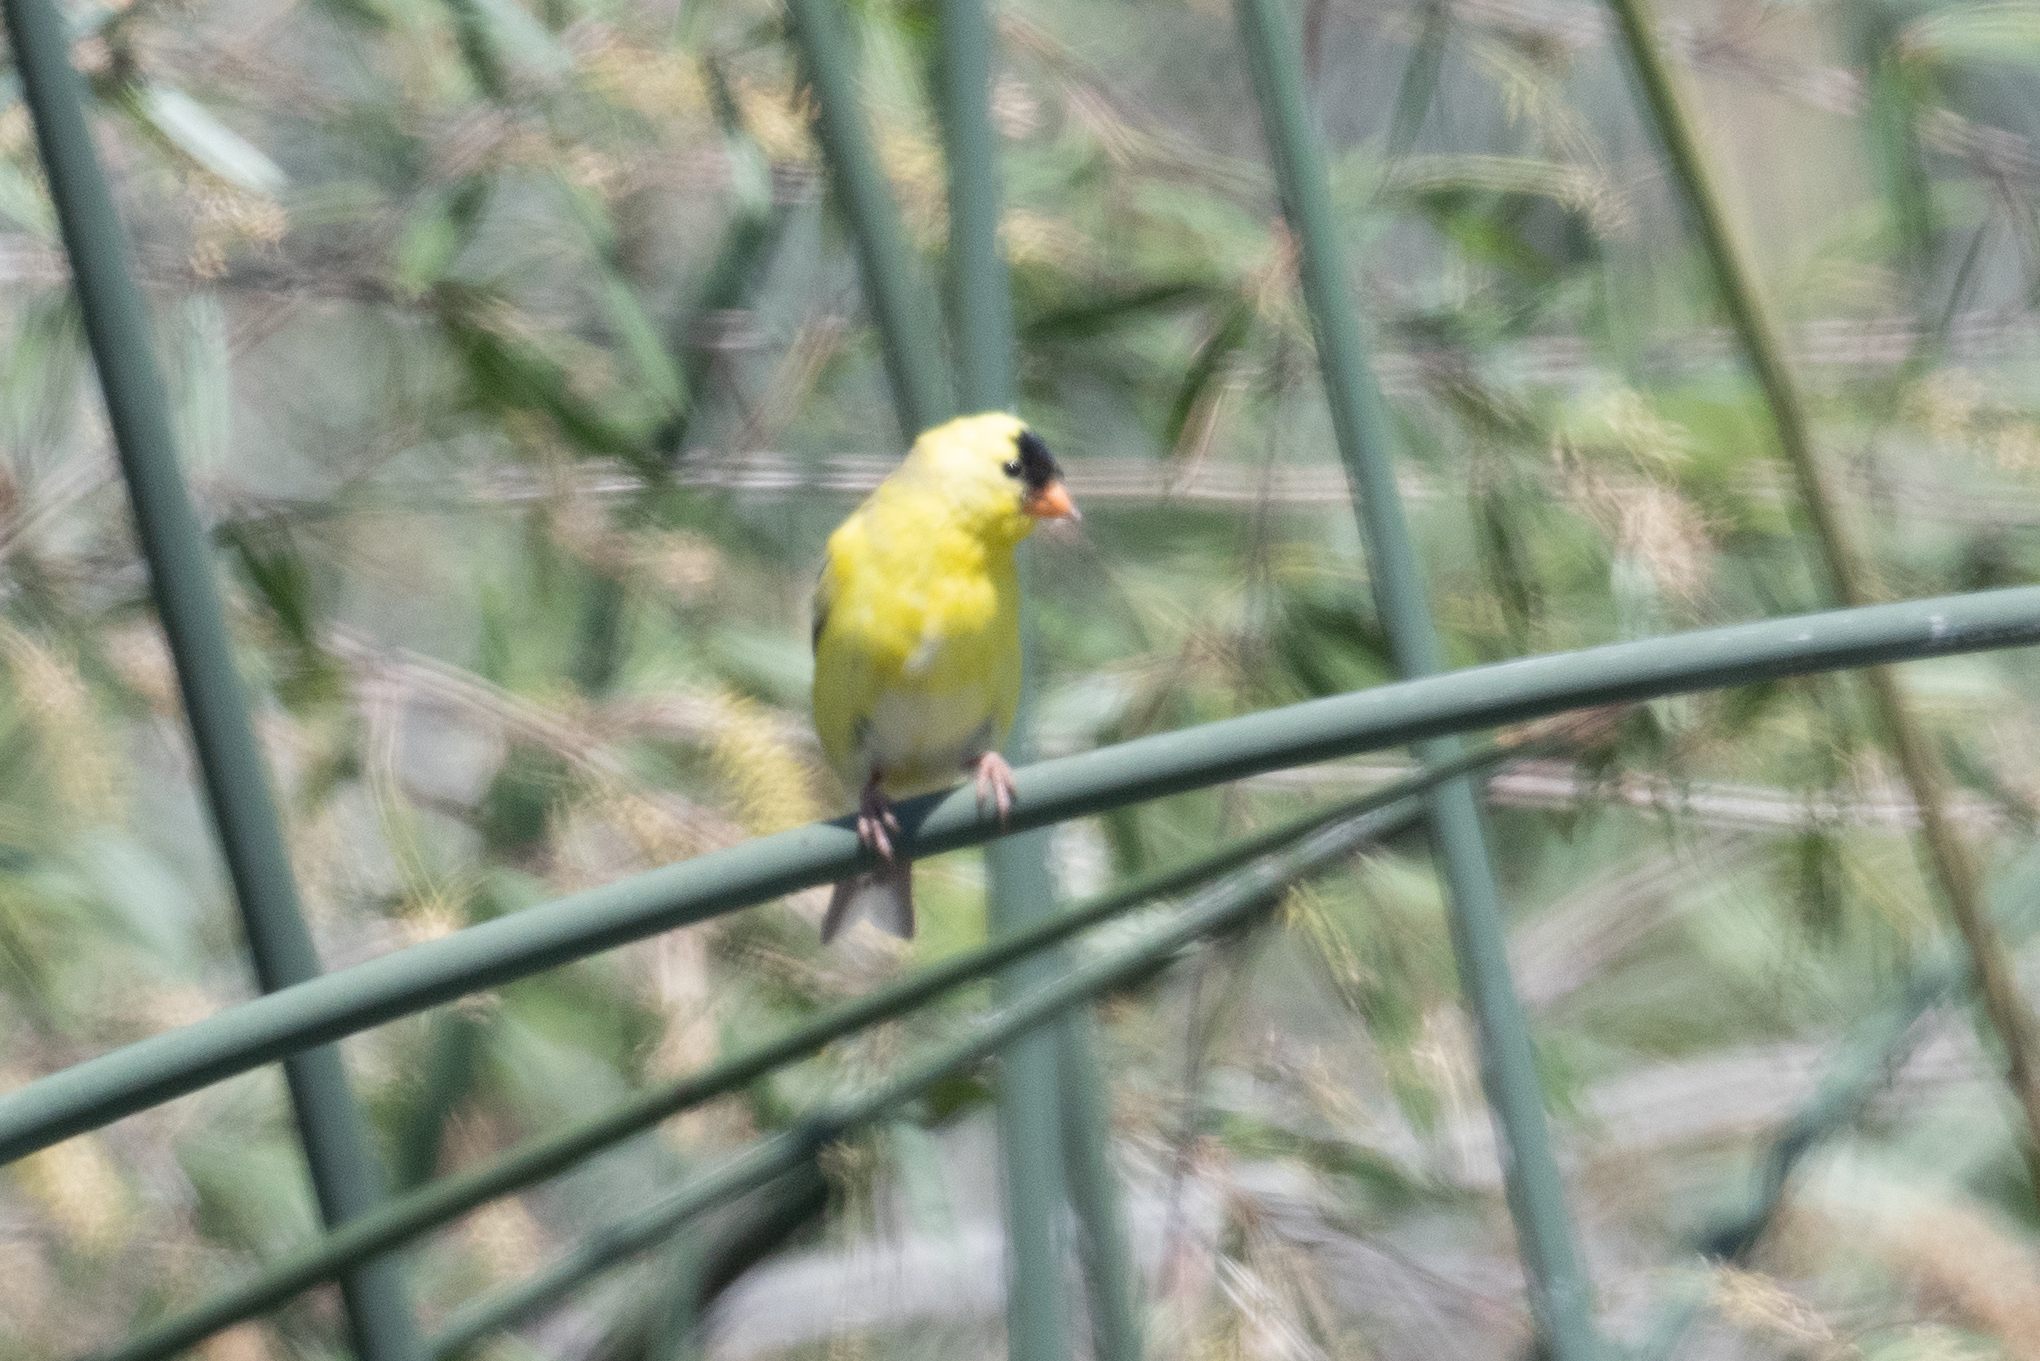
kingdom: Animalia
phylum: Chordata
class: Aves
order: Passeriformes
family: Fringillidae
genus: Spinus
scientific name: Spinus tristis
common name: American goldfinch
